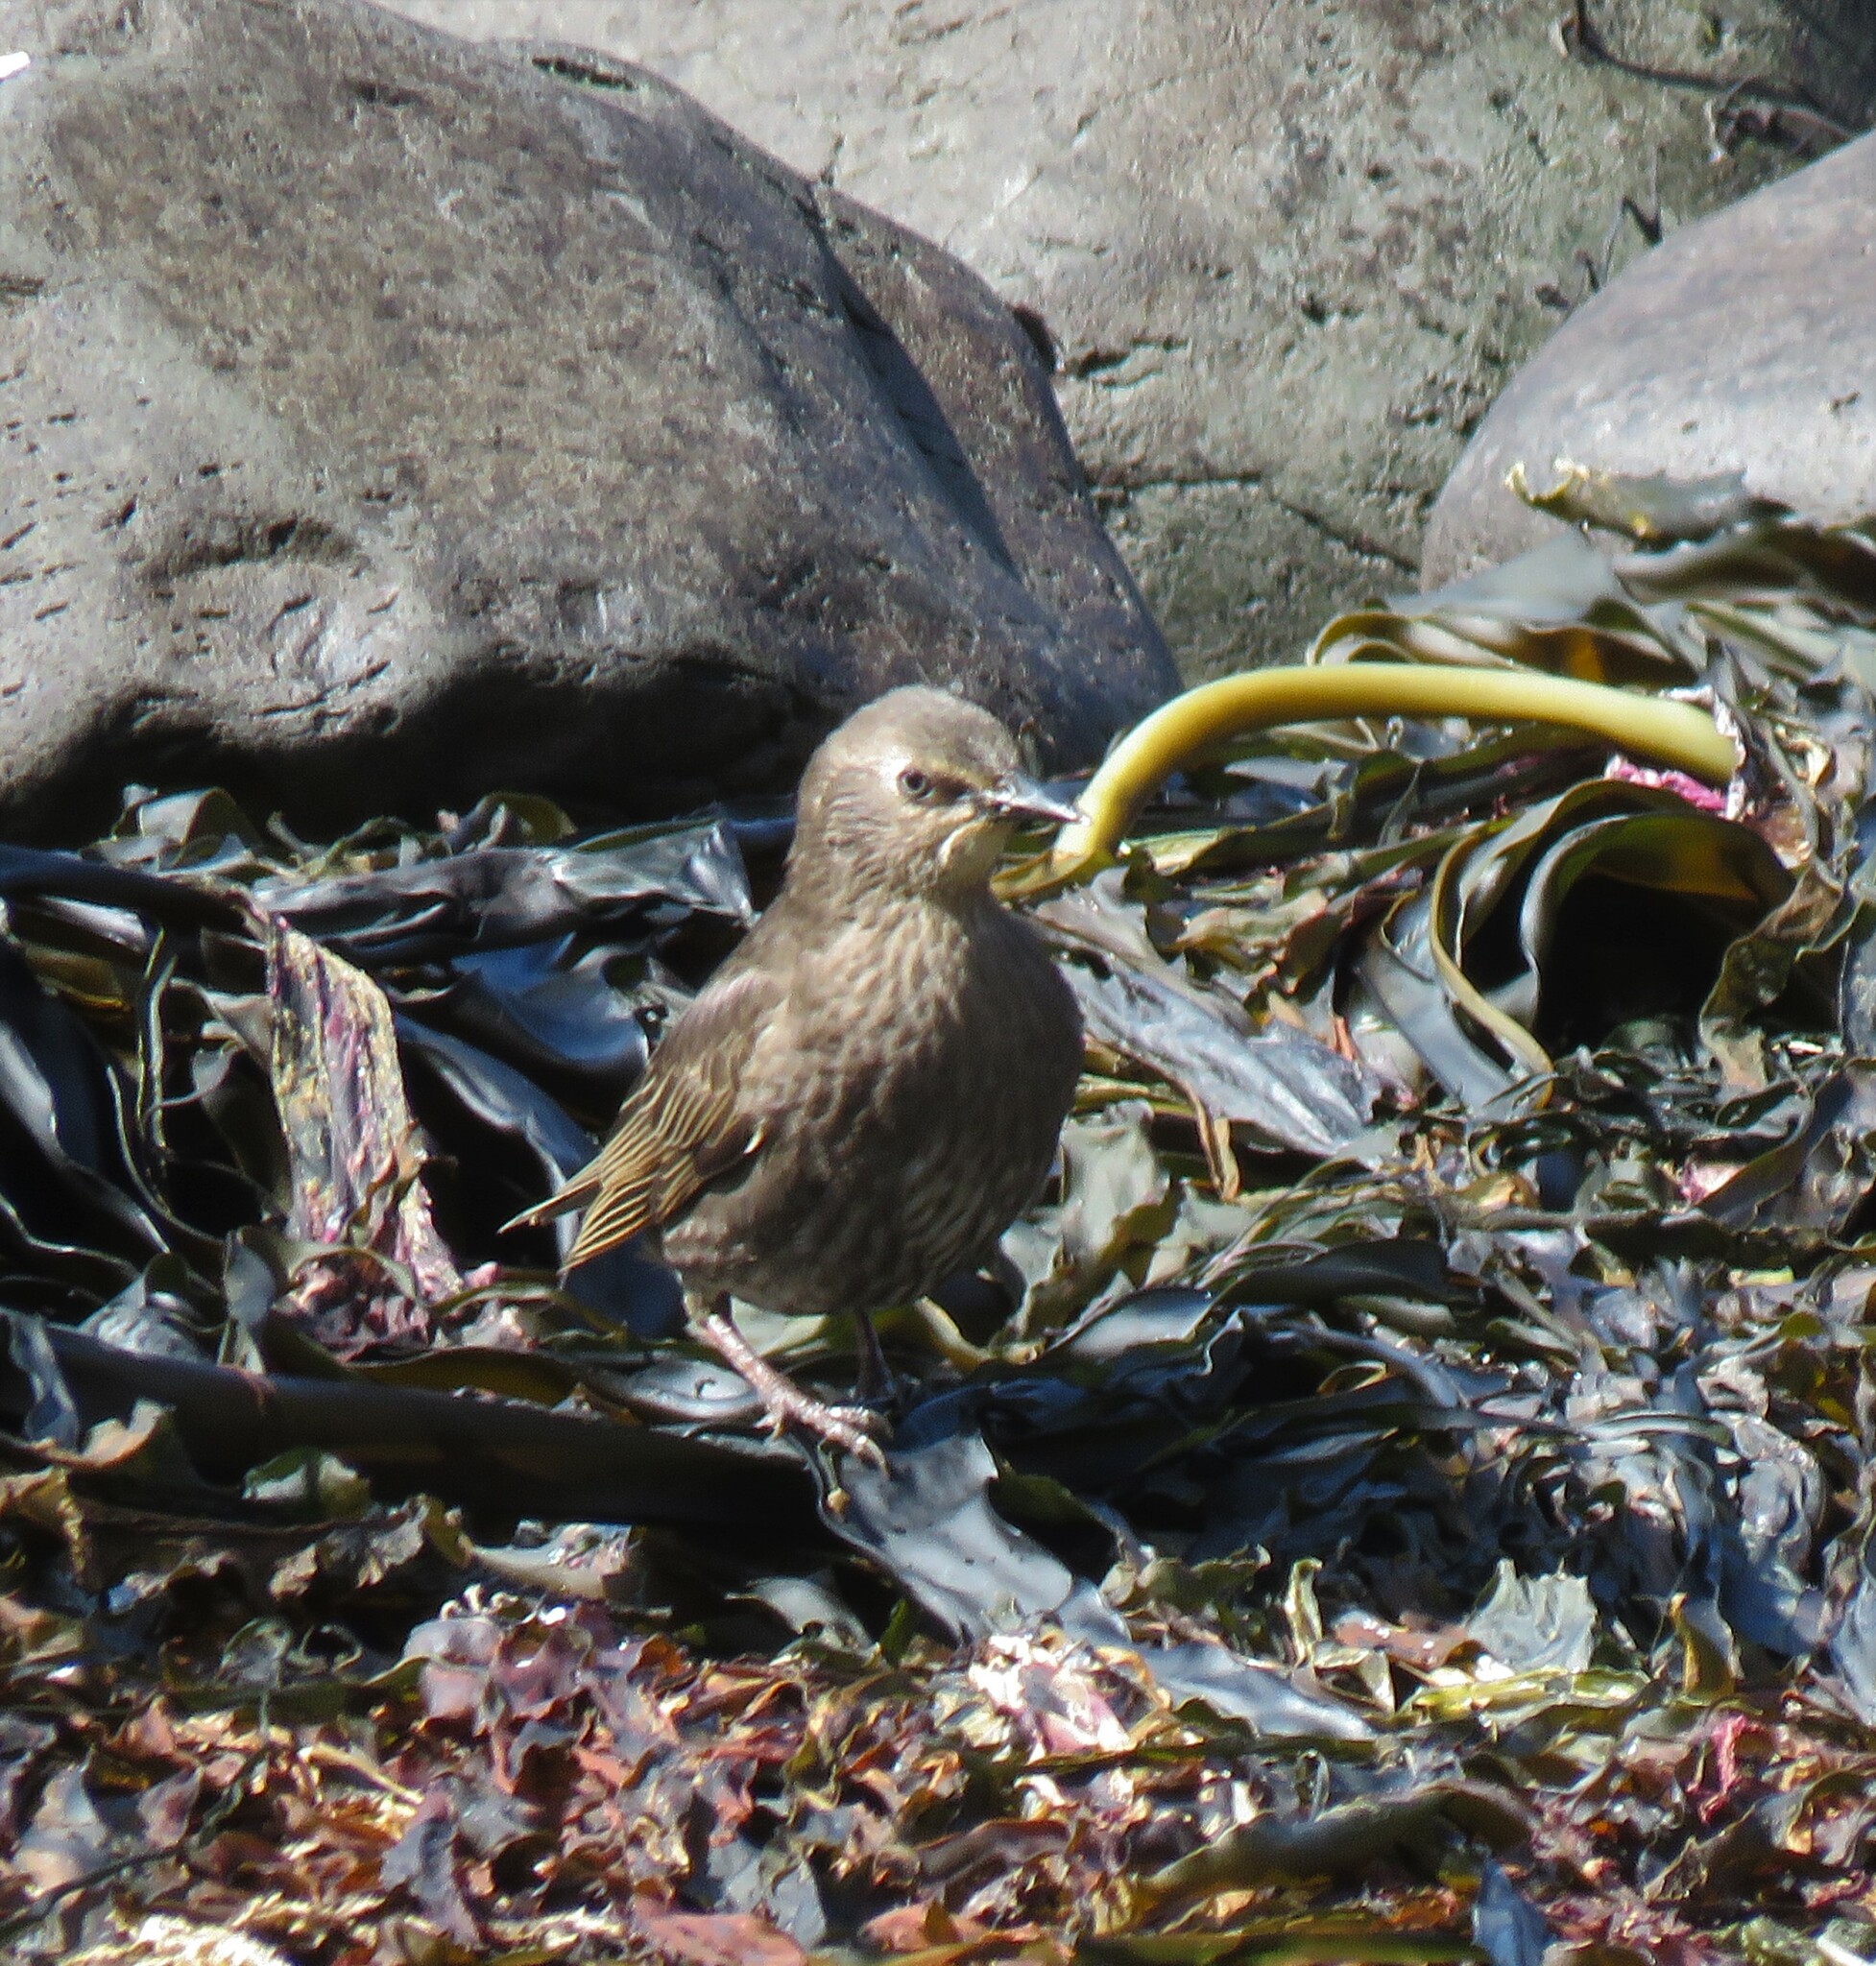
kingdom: Animalia
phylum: Chordata
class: Aves
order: Passeriformes
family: Sturnidae
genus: Sturnus
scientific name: Sturnus vulgaris
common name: Common starling
